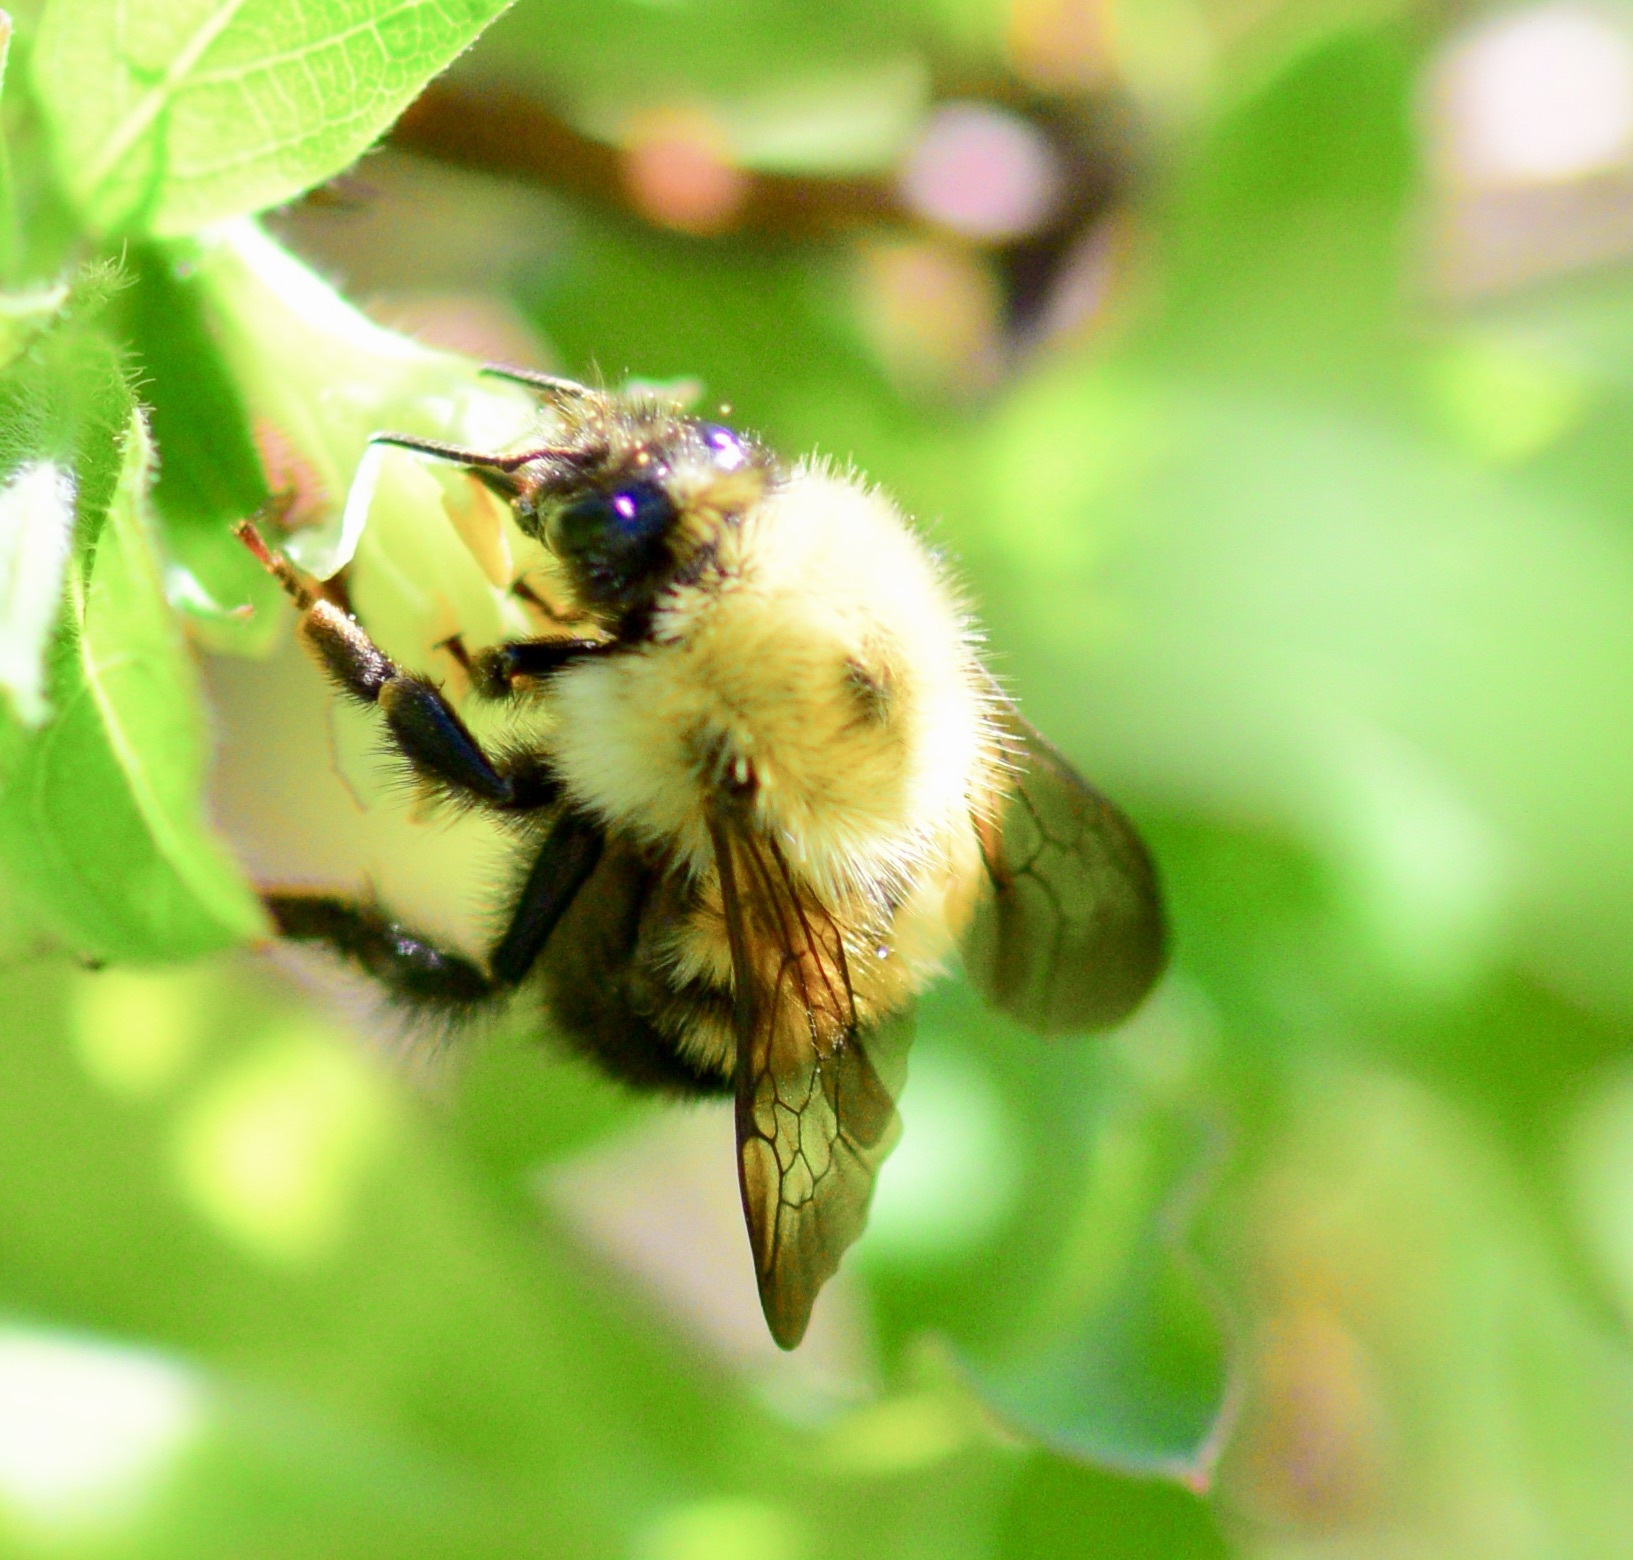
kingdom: Animalia
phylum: Arthropoda
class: Insecta
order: Hymenoptera
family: Apidae
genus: Bombus
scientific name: Bombus perplexus
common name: Confusing bumble bee
